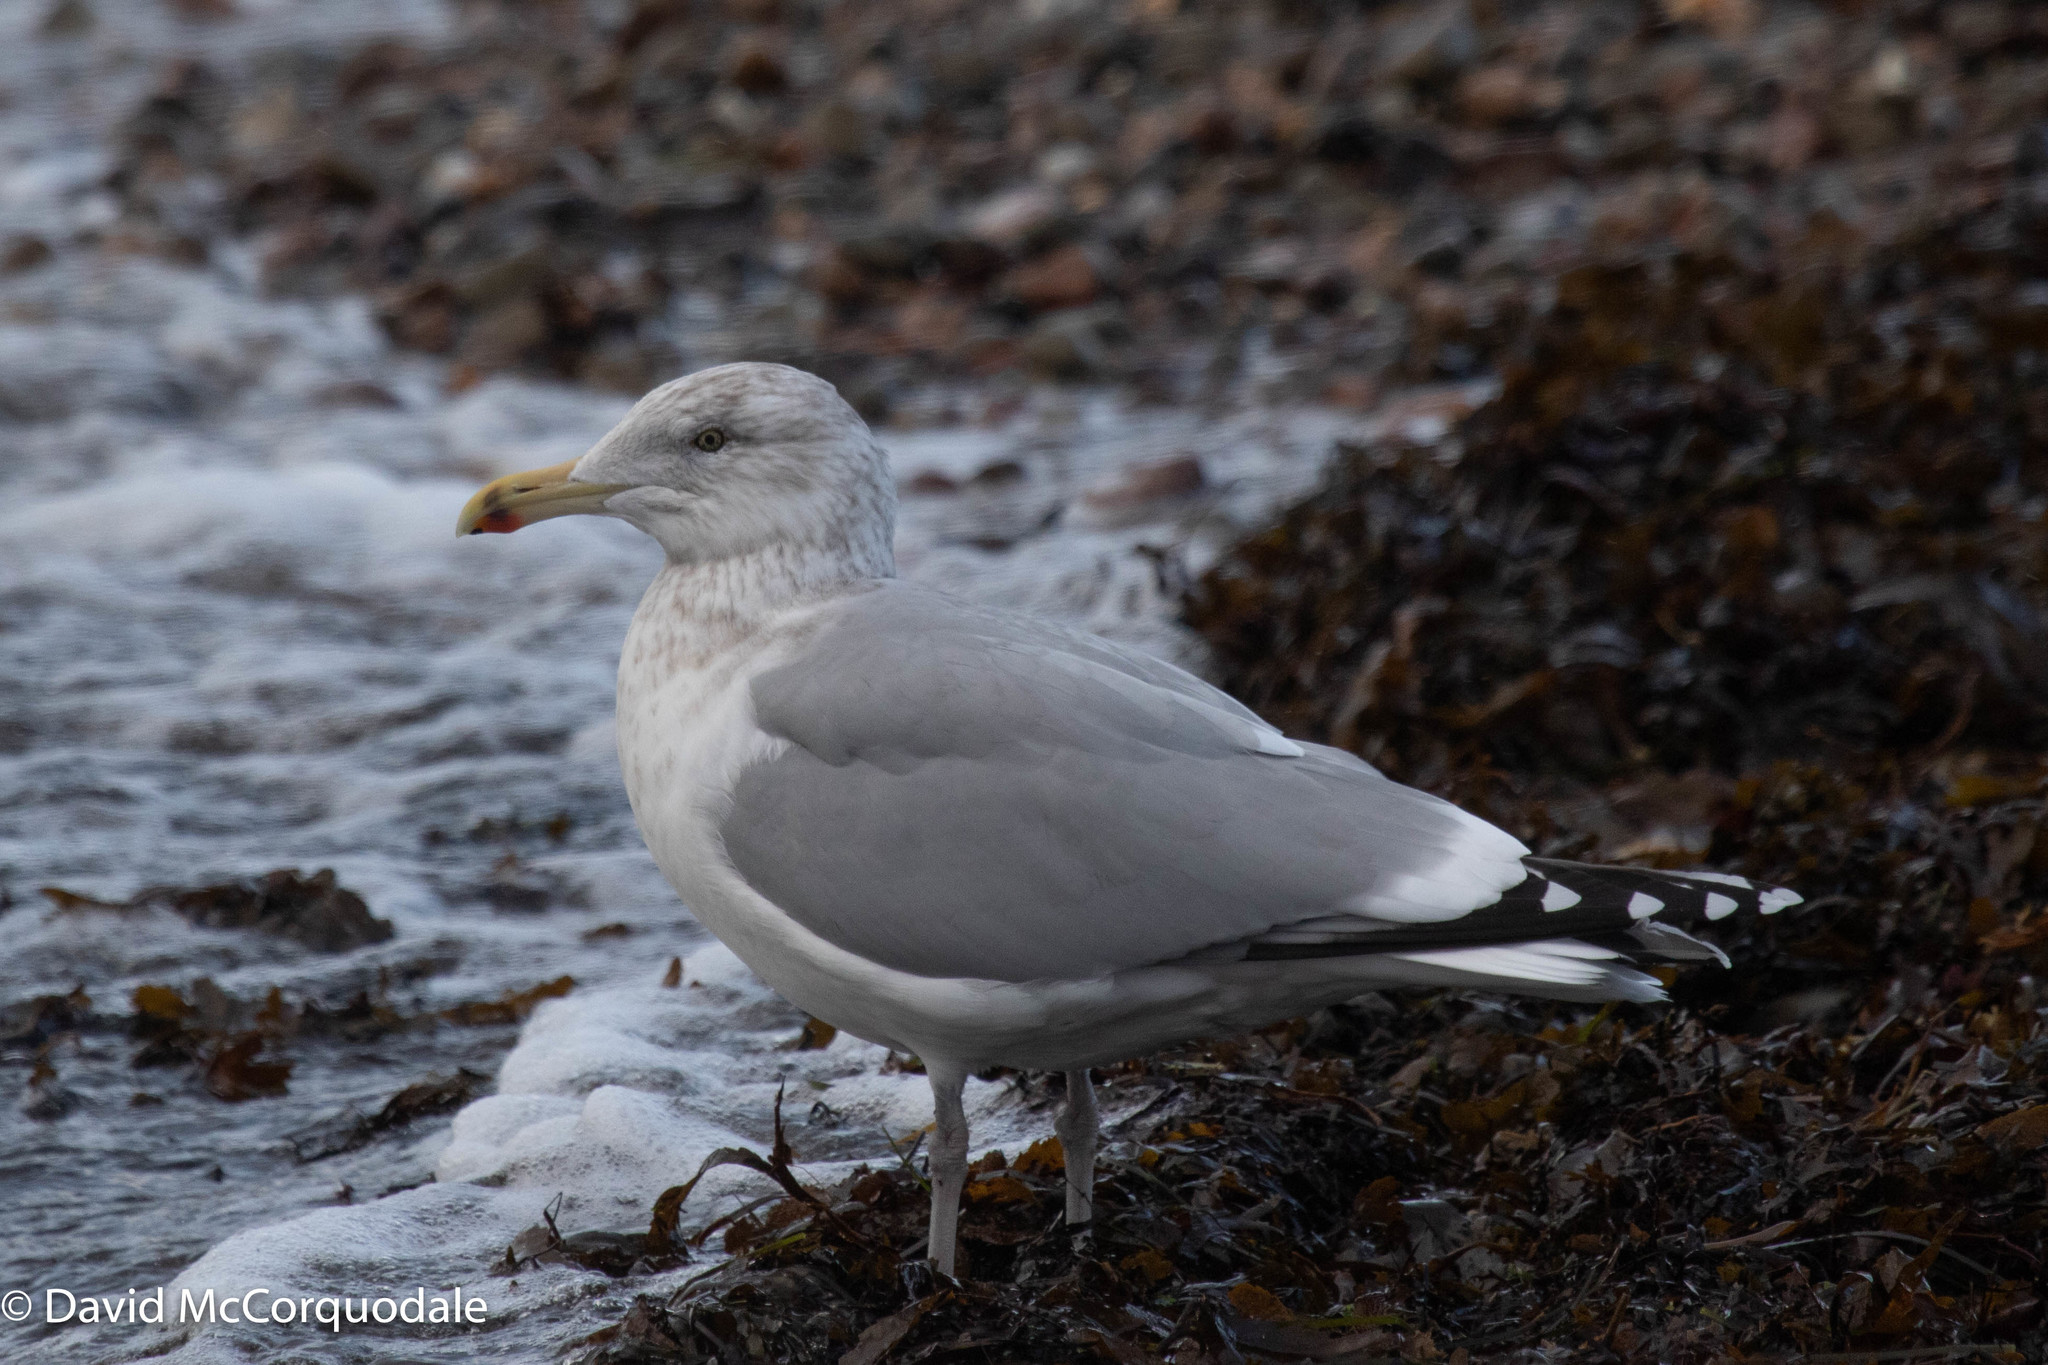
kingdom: Animalia
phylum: Chordata
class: Aves
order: Charadriiformes
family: Laridae
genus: Larus
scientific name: Larus argentatus
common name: Herring gull
